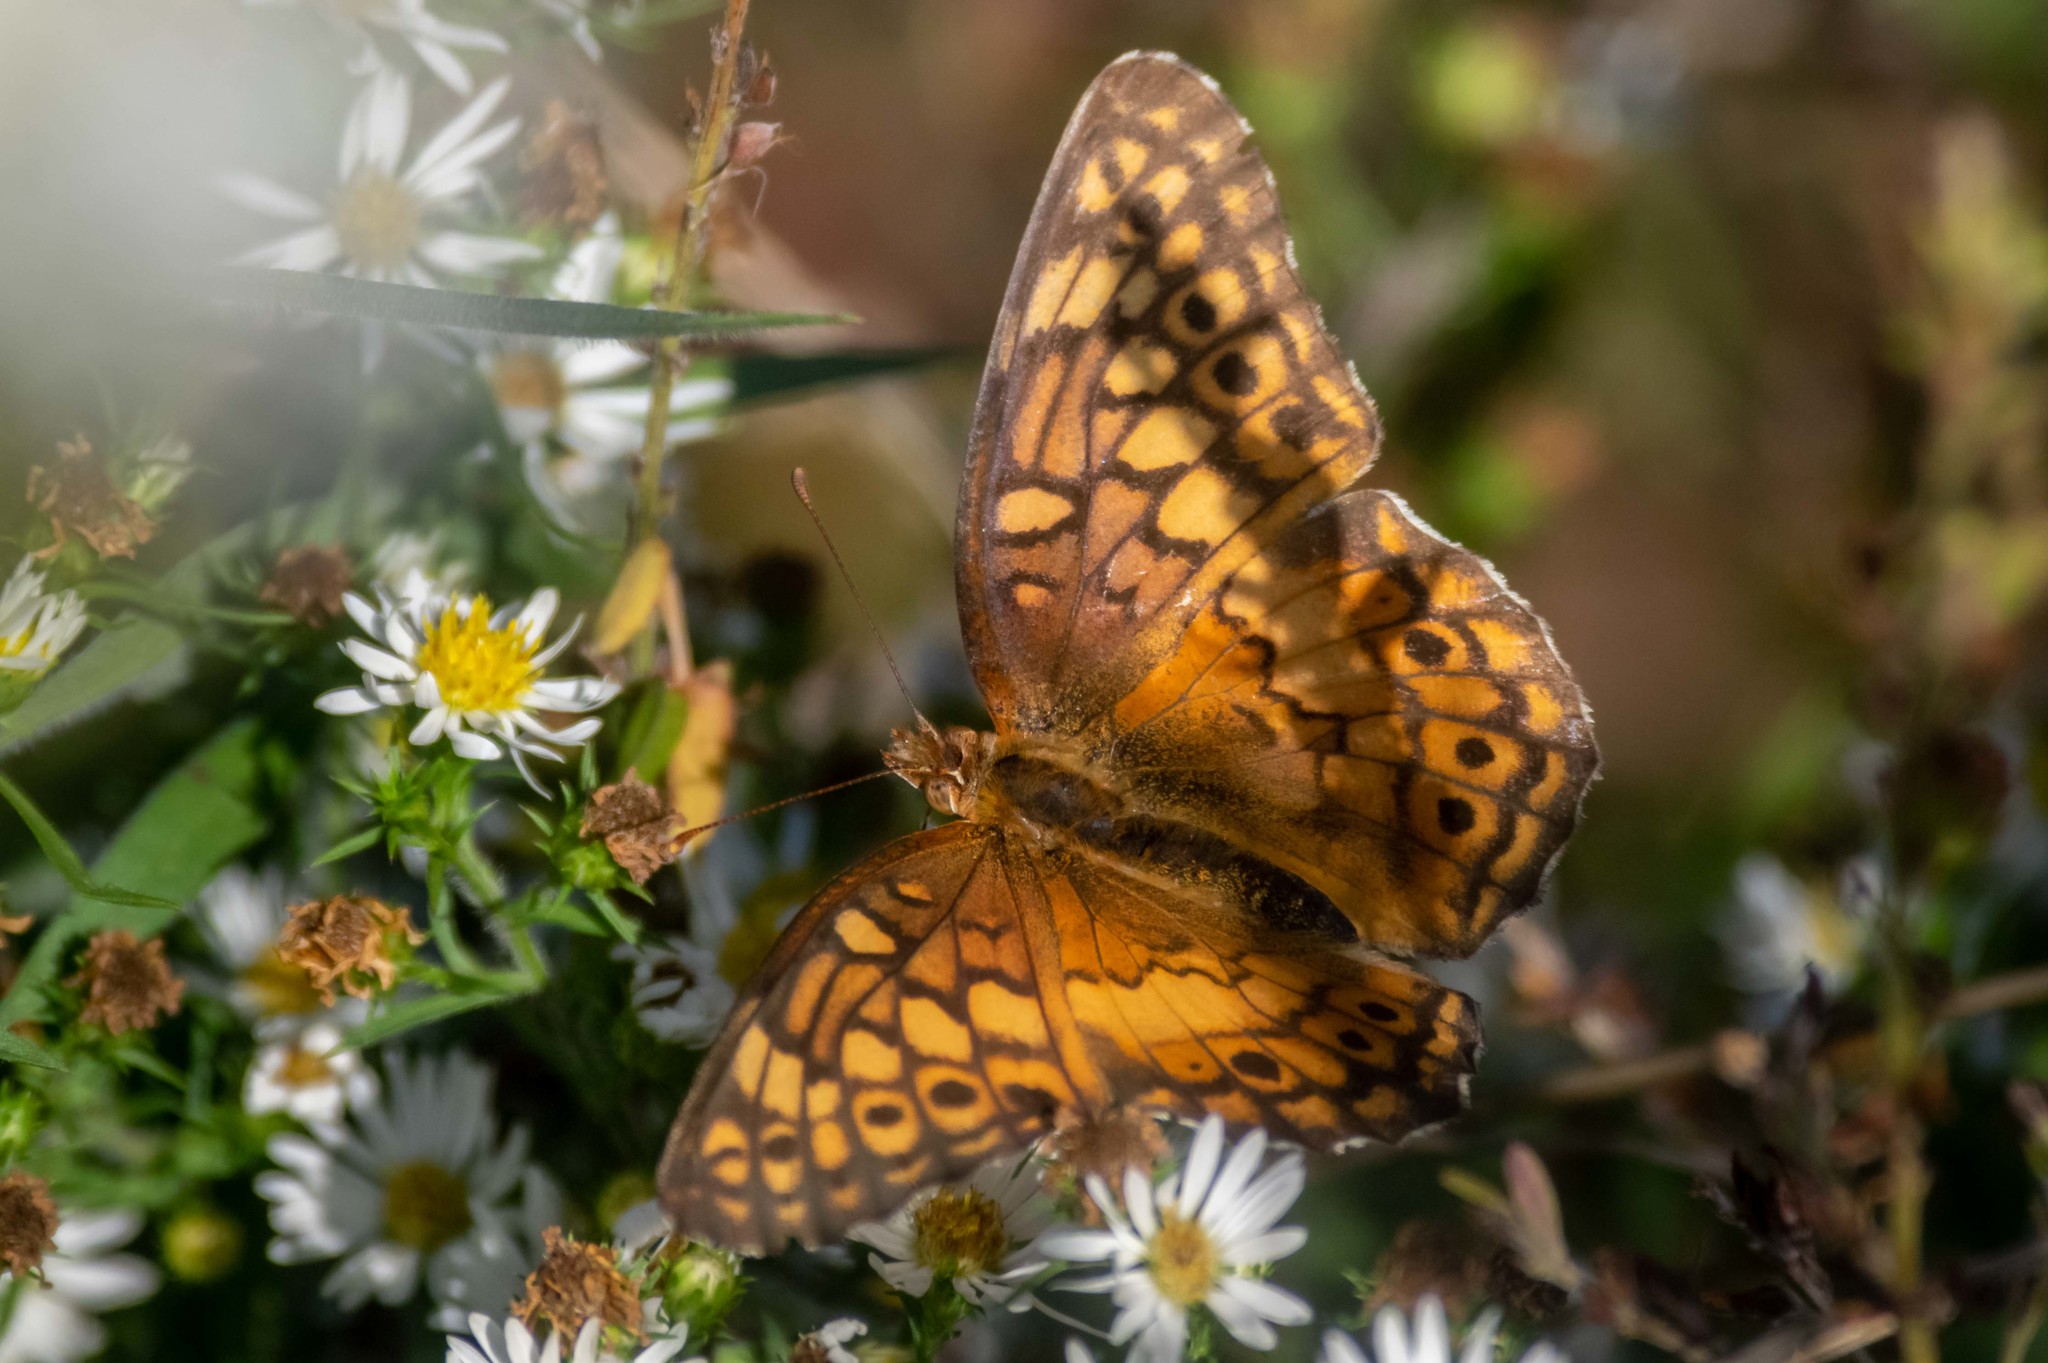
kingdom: Animalia
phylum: Arthropoda
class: Insecta
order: Lepidoptera
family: Nymphalidae
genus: Euptoieta
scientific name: Euptoieta claudia
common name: Variegated fritillary
